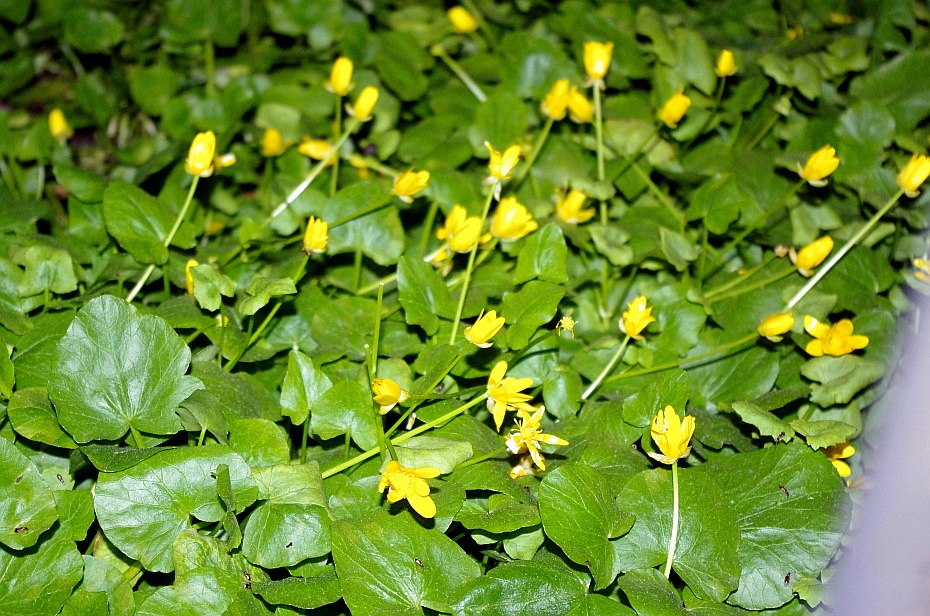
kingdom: Plantae
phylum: Tracheophyta
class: Magnoliopsida
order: Ranunculales
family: Ranunculaceae
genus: Ficaria
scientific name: Ficaria verna
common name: Lesser celandine
